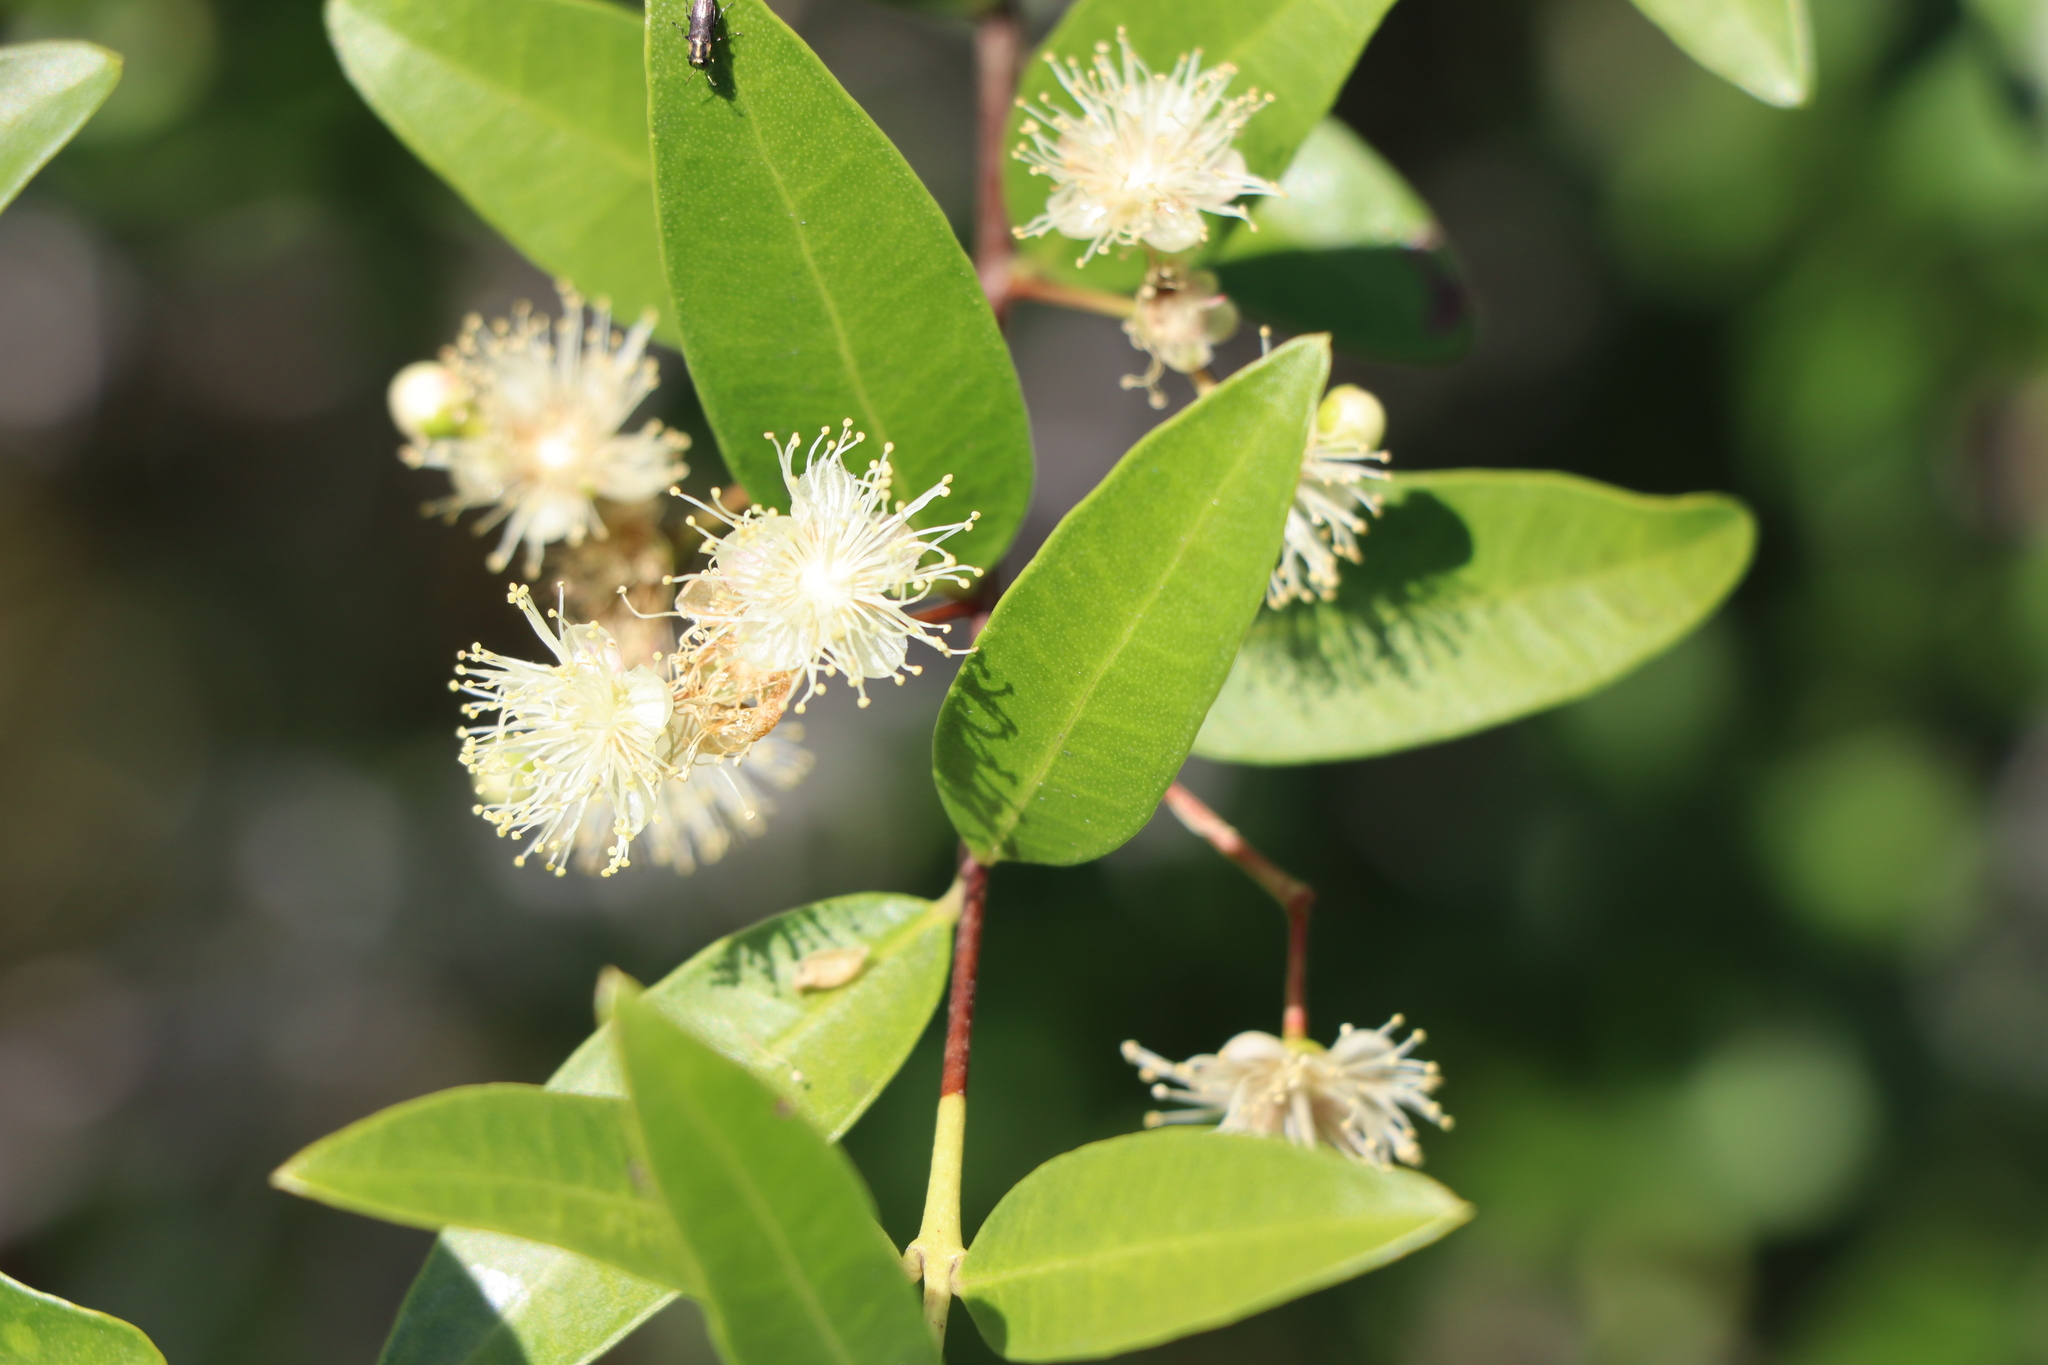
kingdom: Plantae
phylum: Tracheophyta
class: Magnoliopsida
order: Myrtales
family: Myrtaceae
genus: Myrcianthes
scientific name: Myrcianthes cisplatensis
